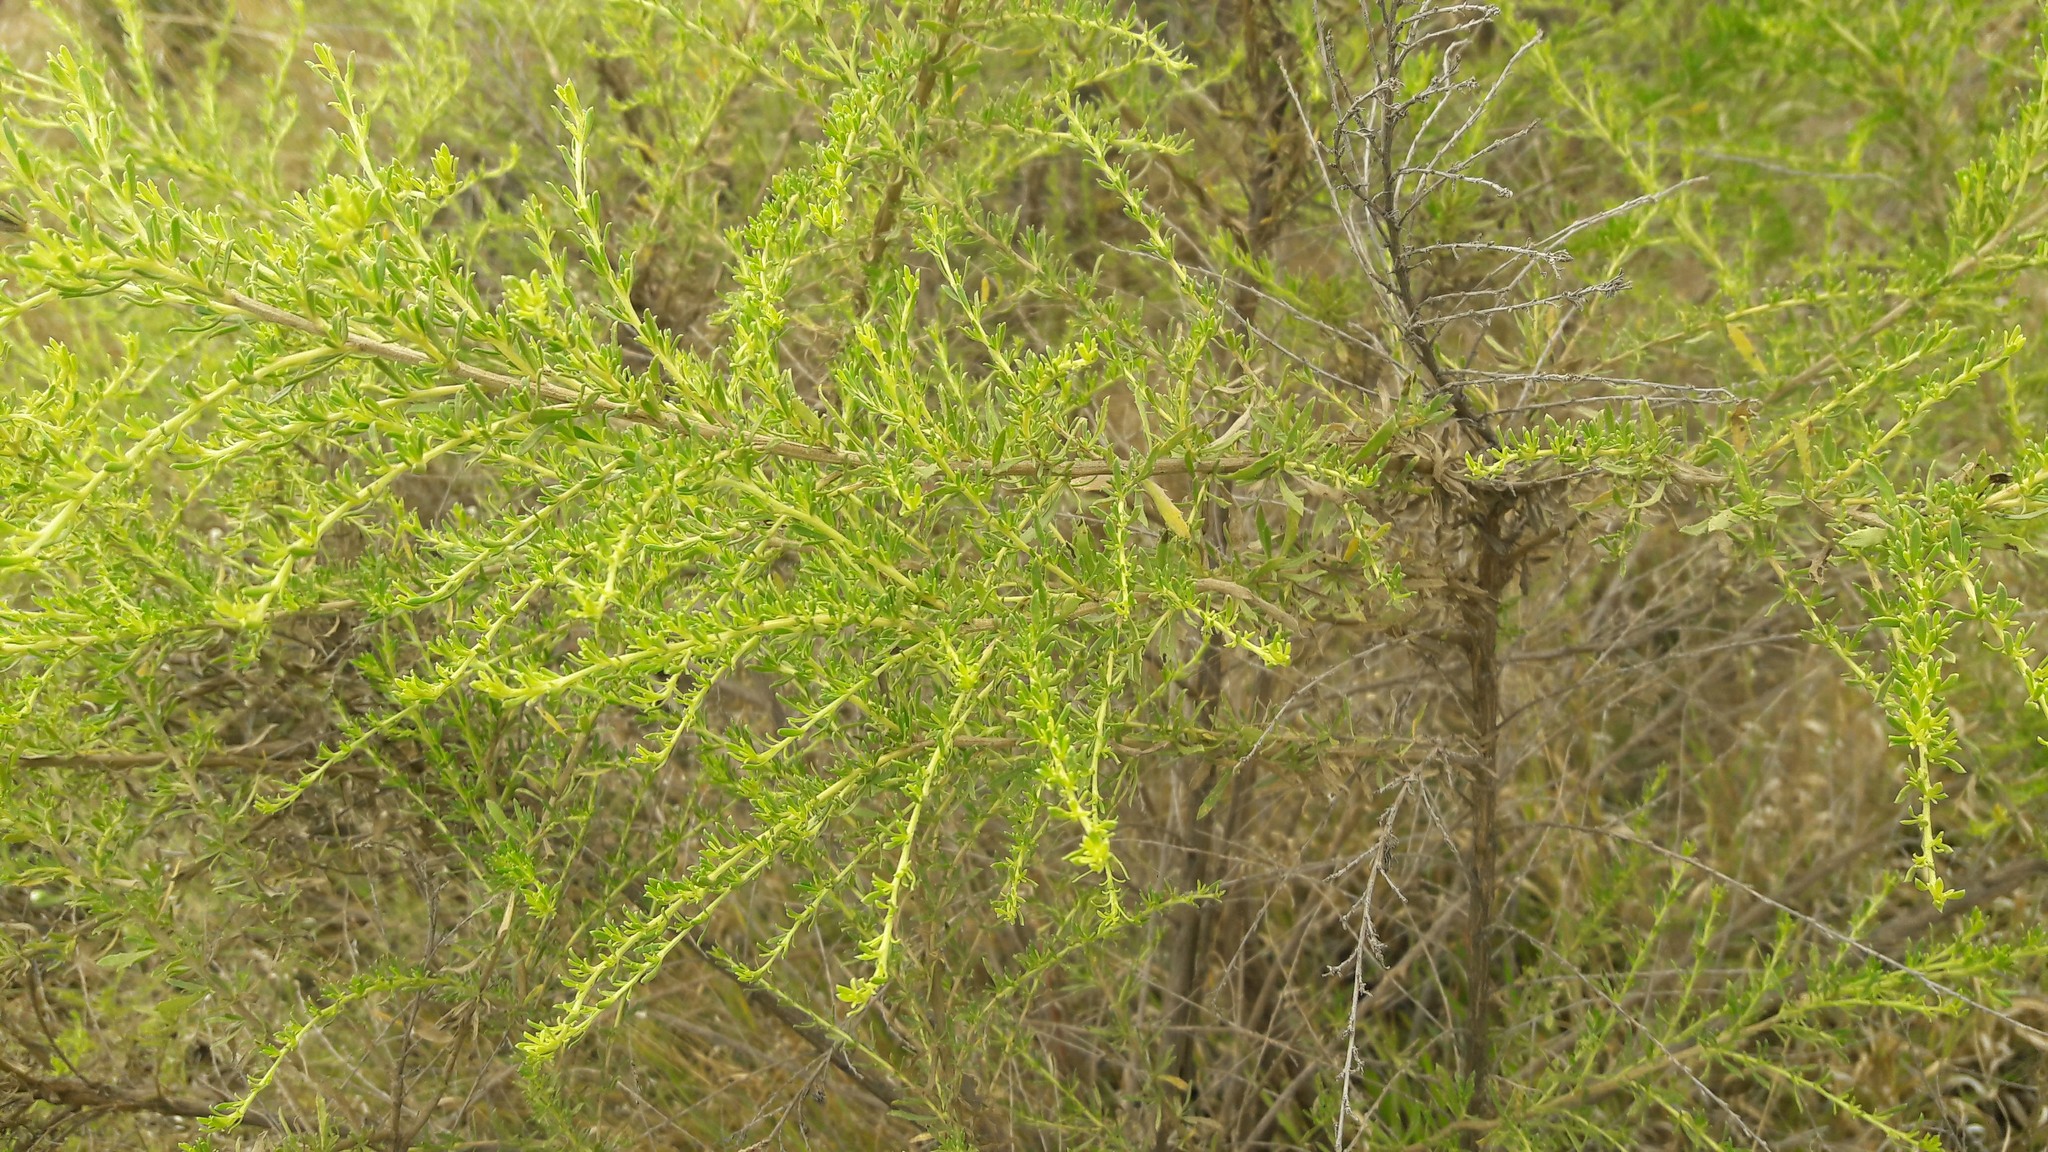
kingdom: Plantae
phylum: Tracheophyta
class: Magnoliopsida
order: Asterales
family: Asteraceae
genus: Baccharis
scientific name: Baccharis pteronioides
